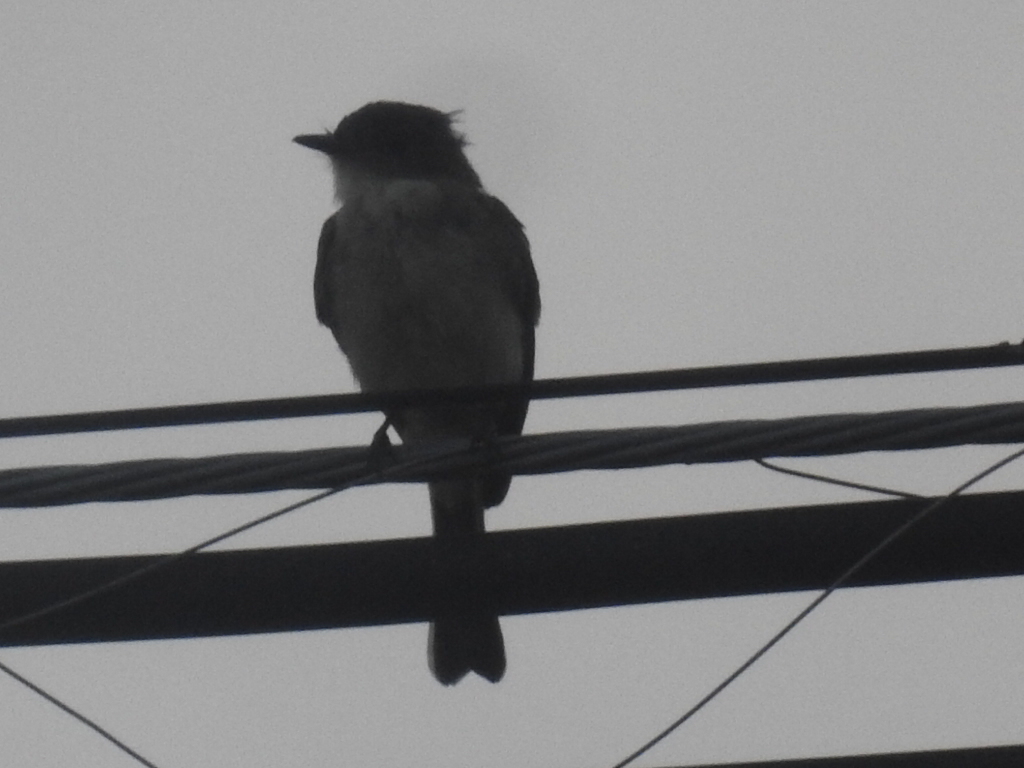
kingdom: Animalia
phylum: Chordata
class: Aves
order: Passeriformes
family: Tyrannidae
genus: Sayornis
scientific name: Sayornis phoebe
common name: Eastern phoebe
